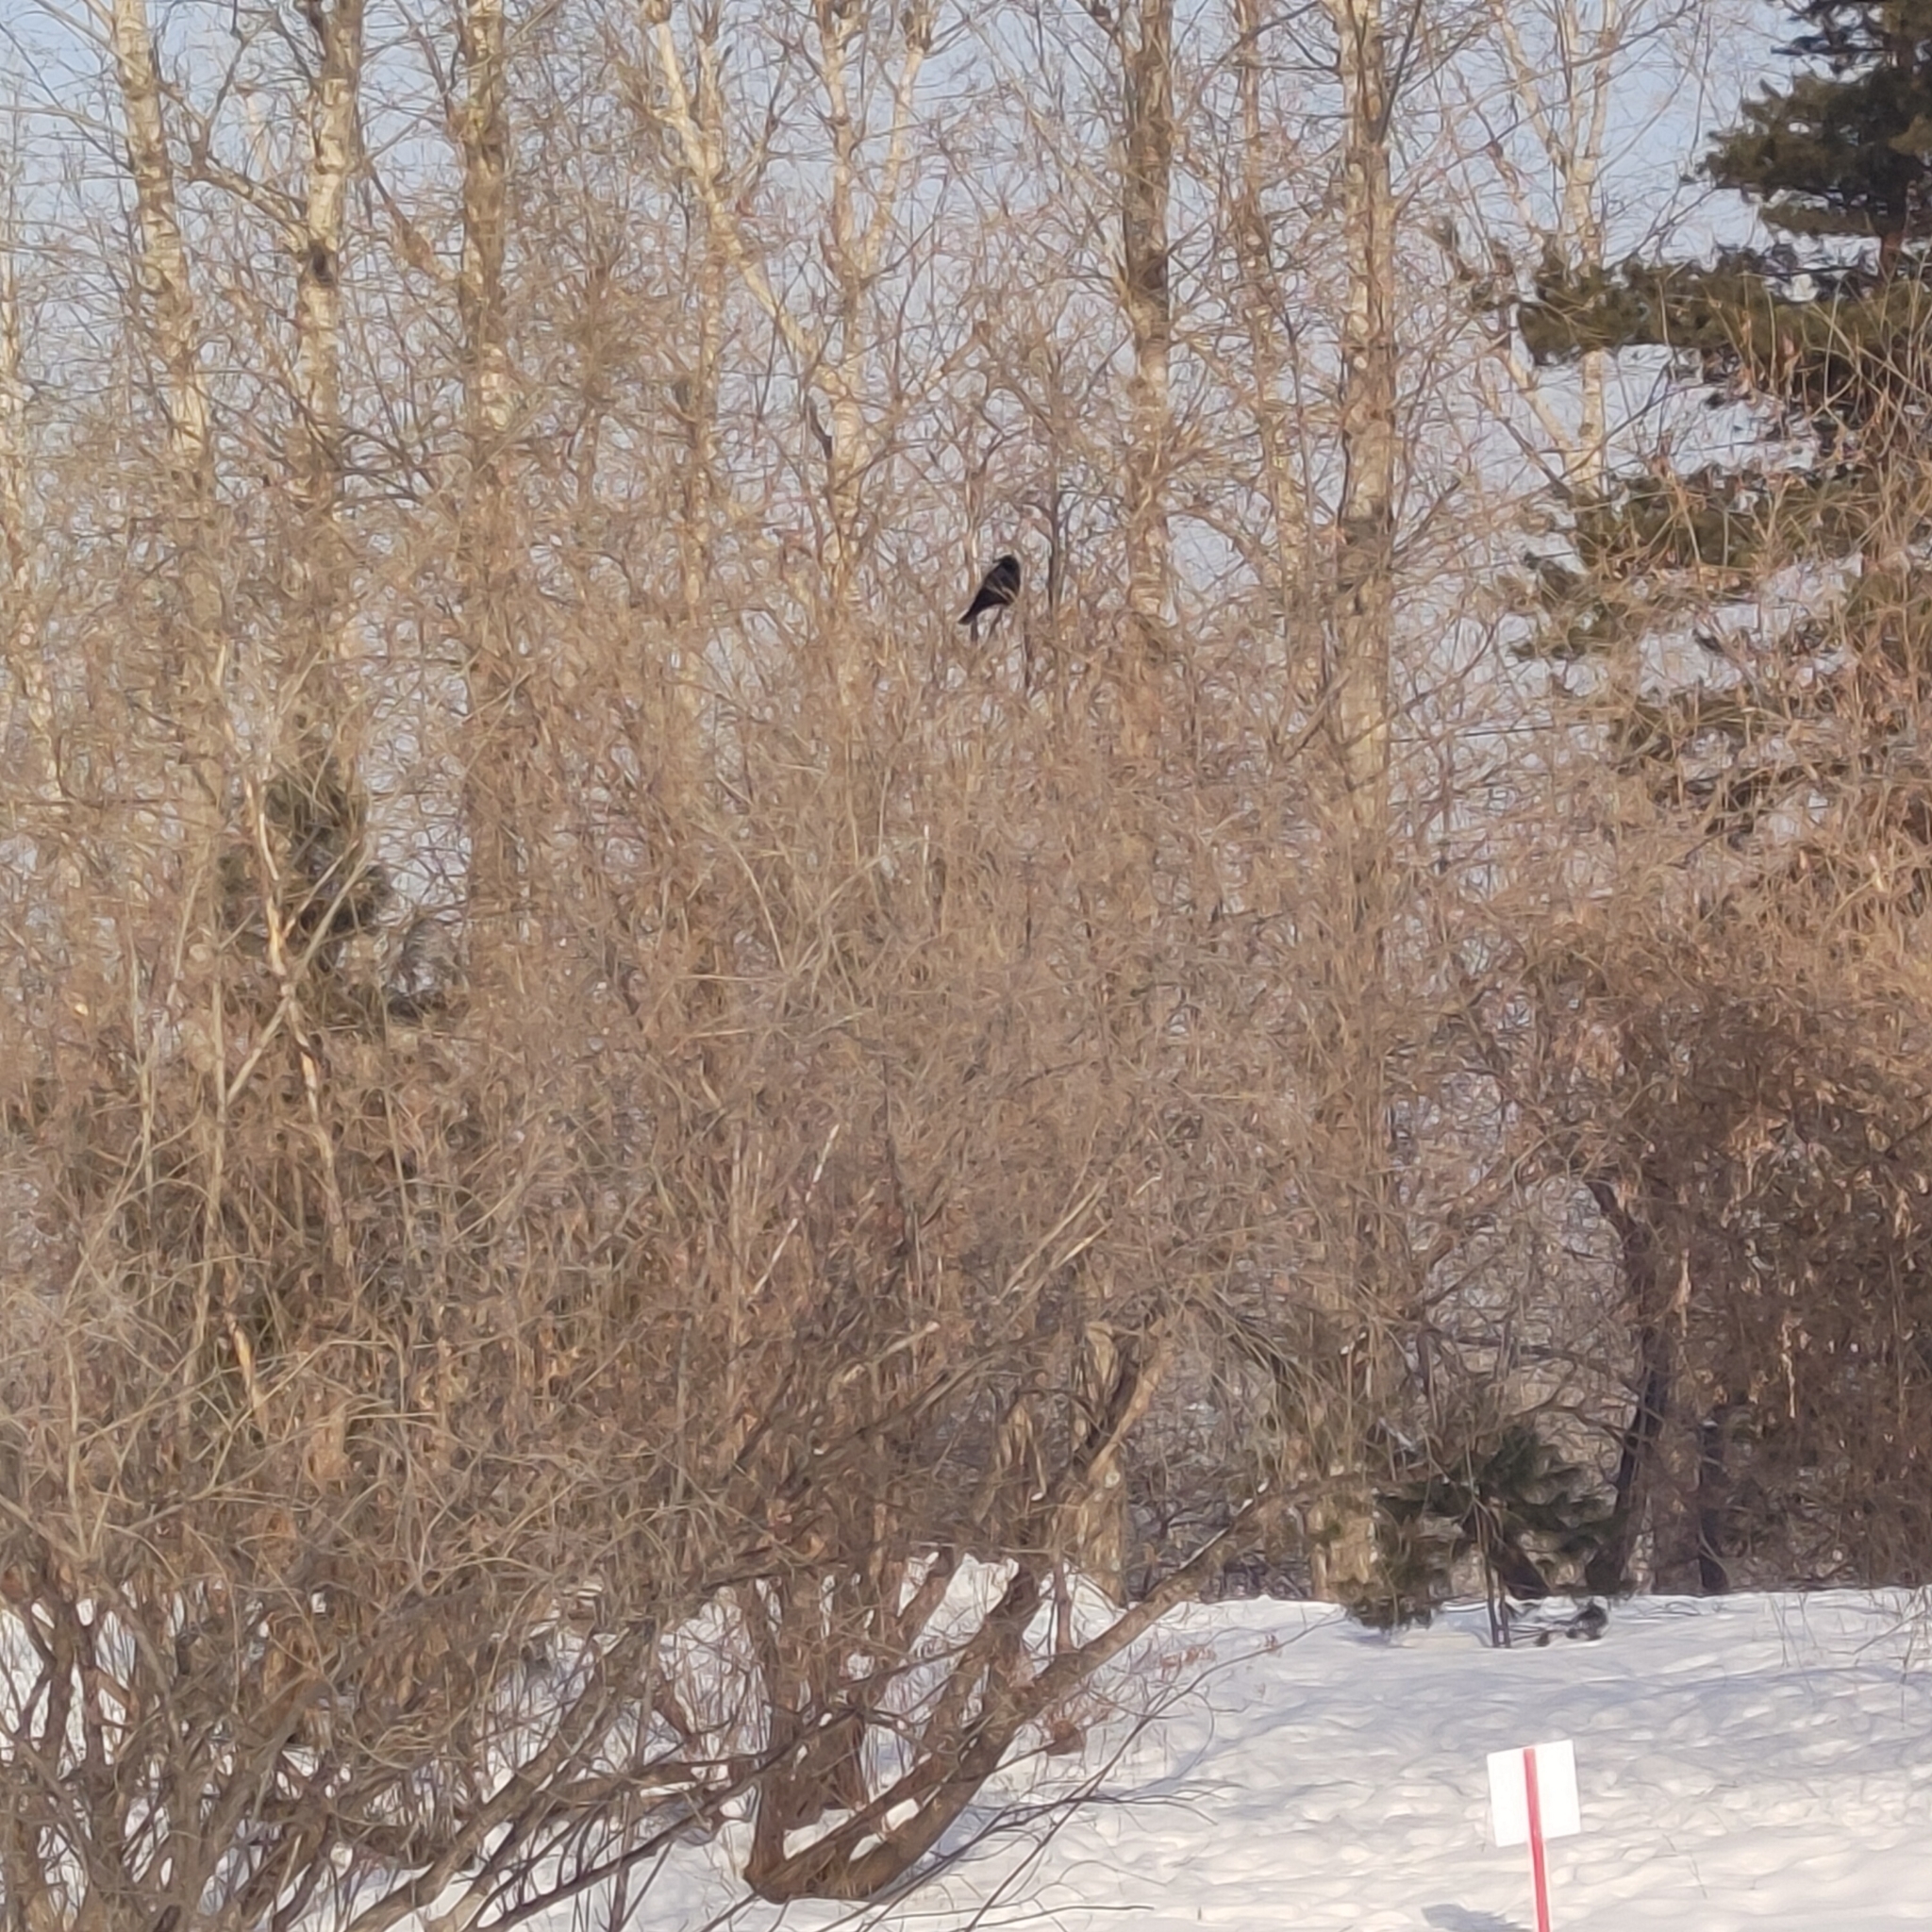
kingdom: Animalia
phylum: Chordata
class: Aves
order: Passeriformes
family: Corvidae
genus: Corvus
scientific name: Corvus corone
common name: Carrion crow
